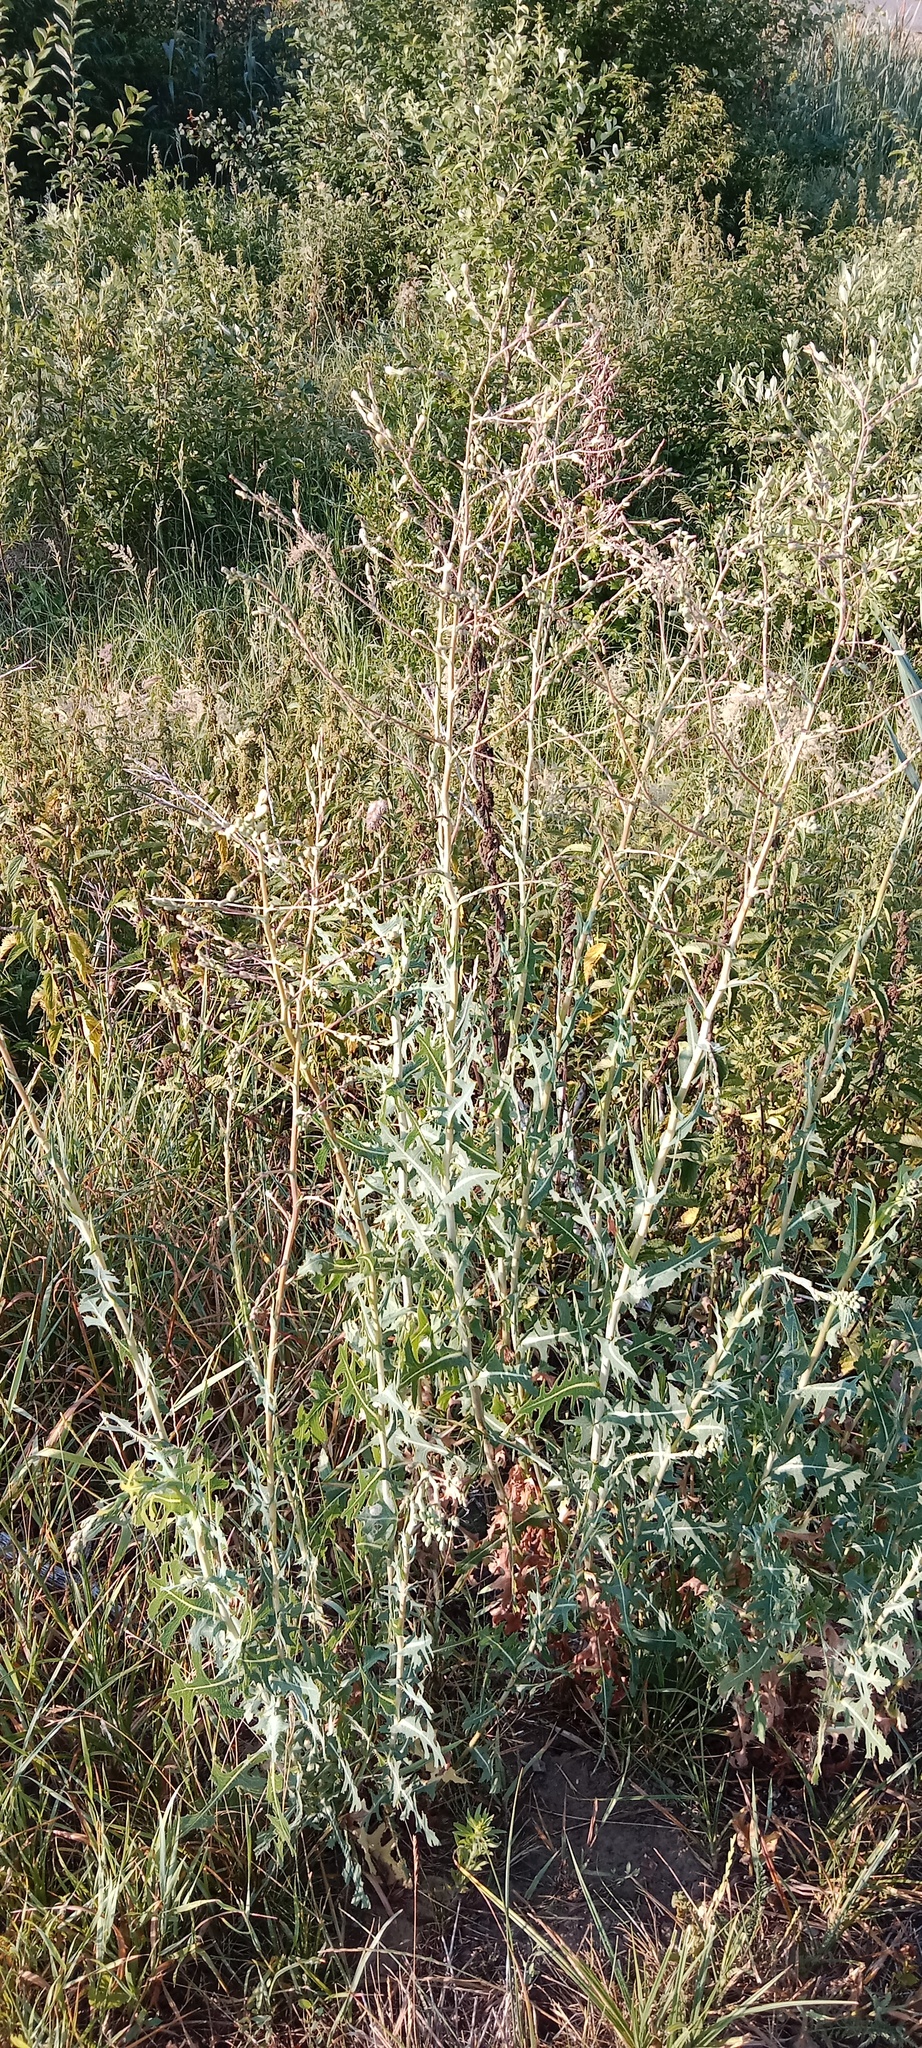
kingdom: Plantae
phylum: Tracheophyta
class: Magnoliopsida
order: Asterales
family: Asteraceae
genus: Lactuca
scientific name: Lactuca serriola
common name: Prickly lettuce
